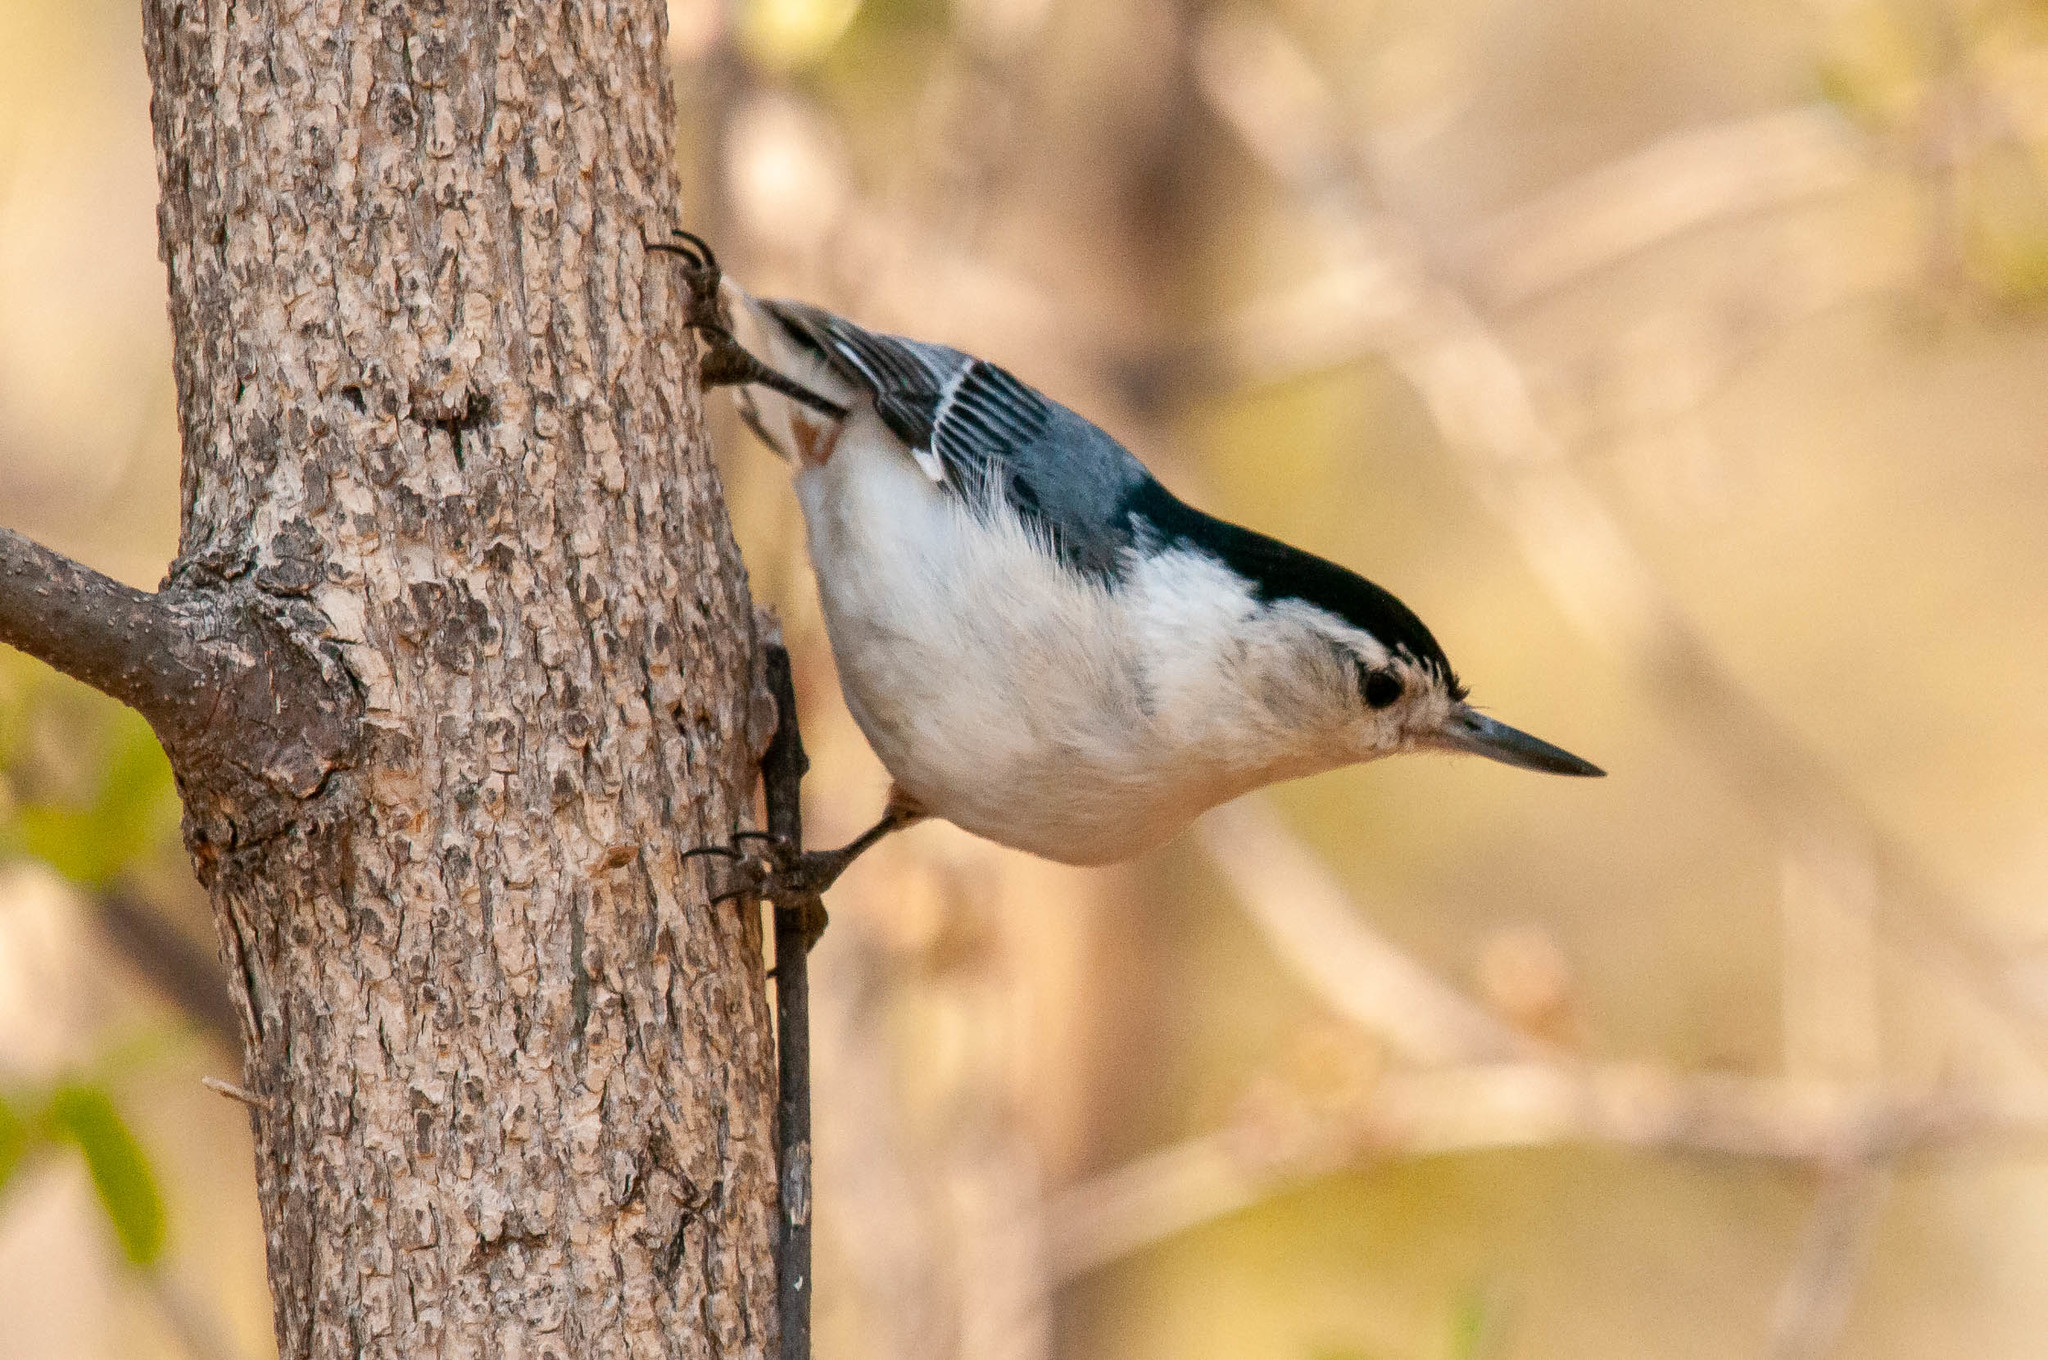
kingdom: Animalia
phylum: Chordata
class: Aves
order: Passeriformes
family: Sittidae
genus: Sitta
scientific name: Sitta carolinensis
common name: White-breasted nuthatch
